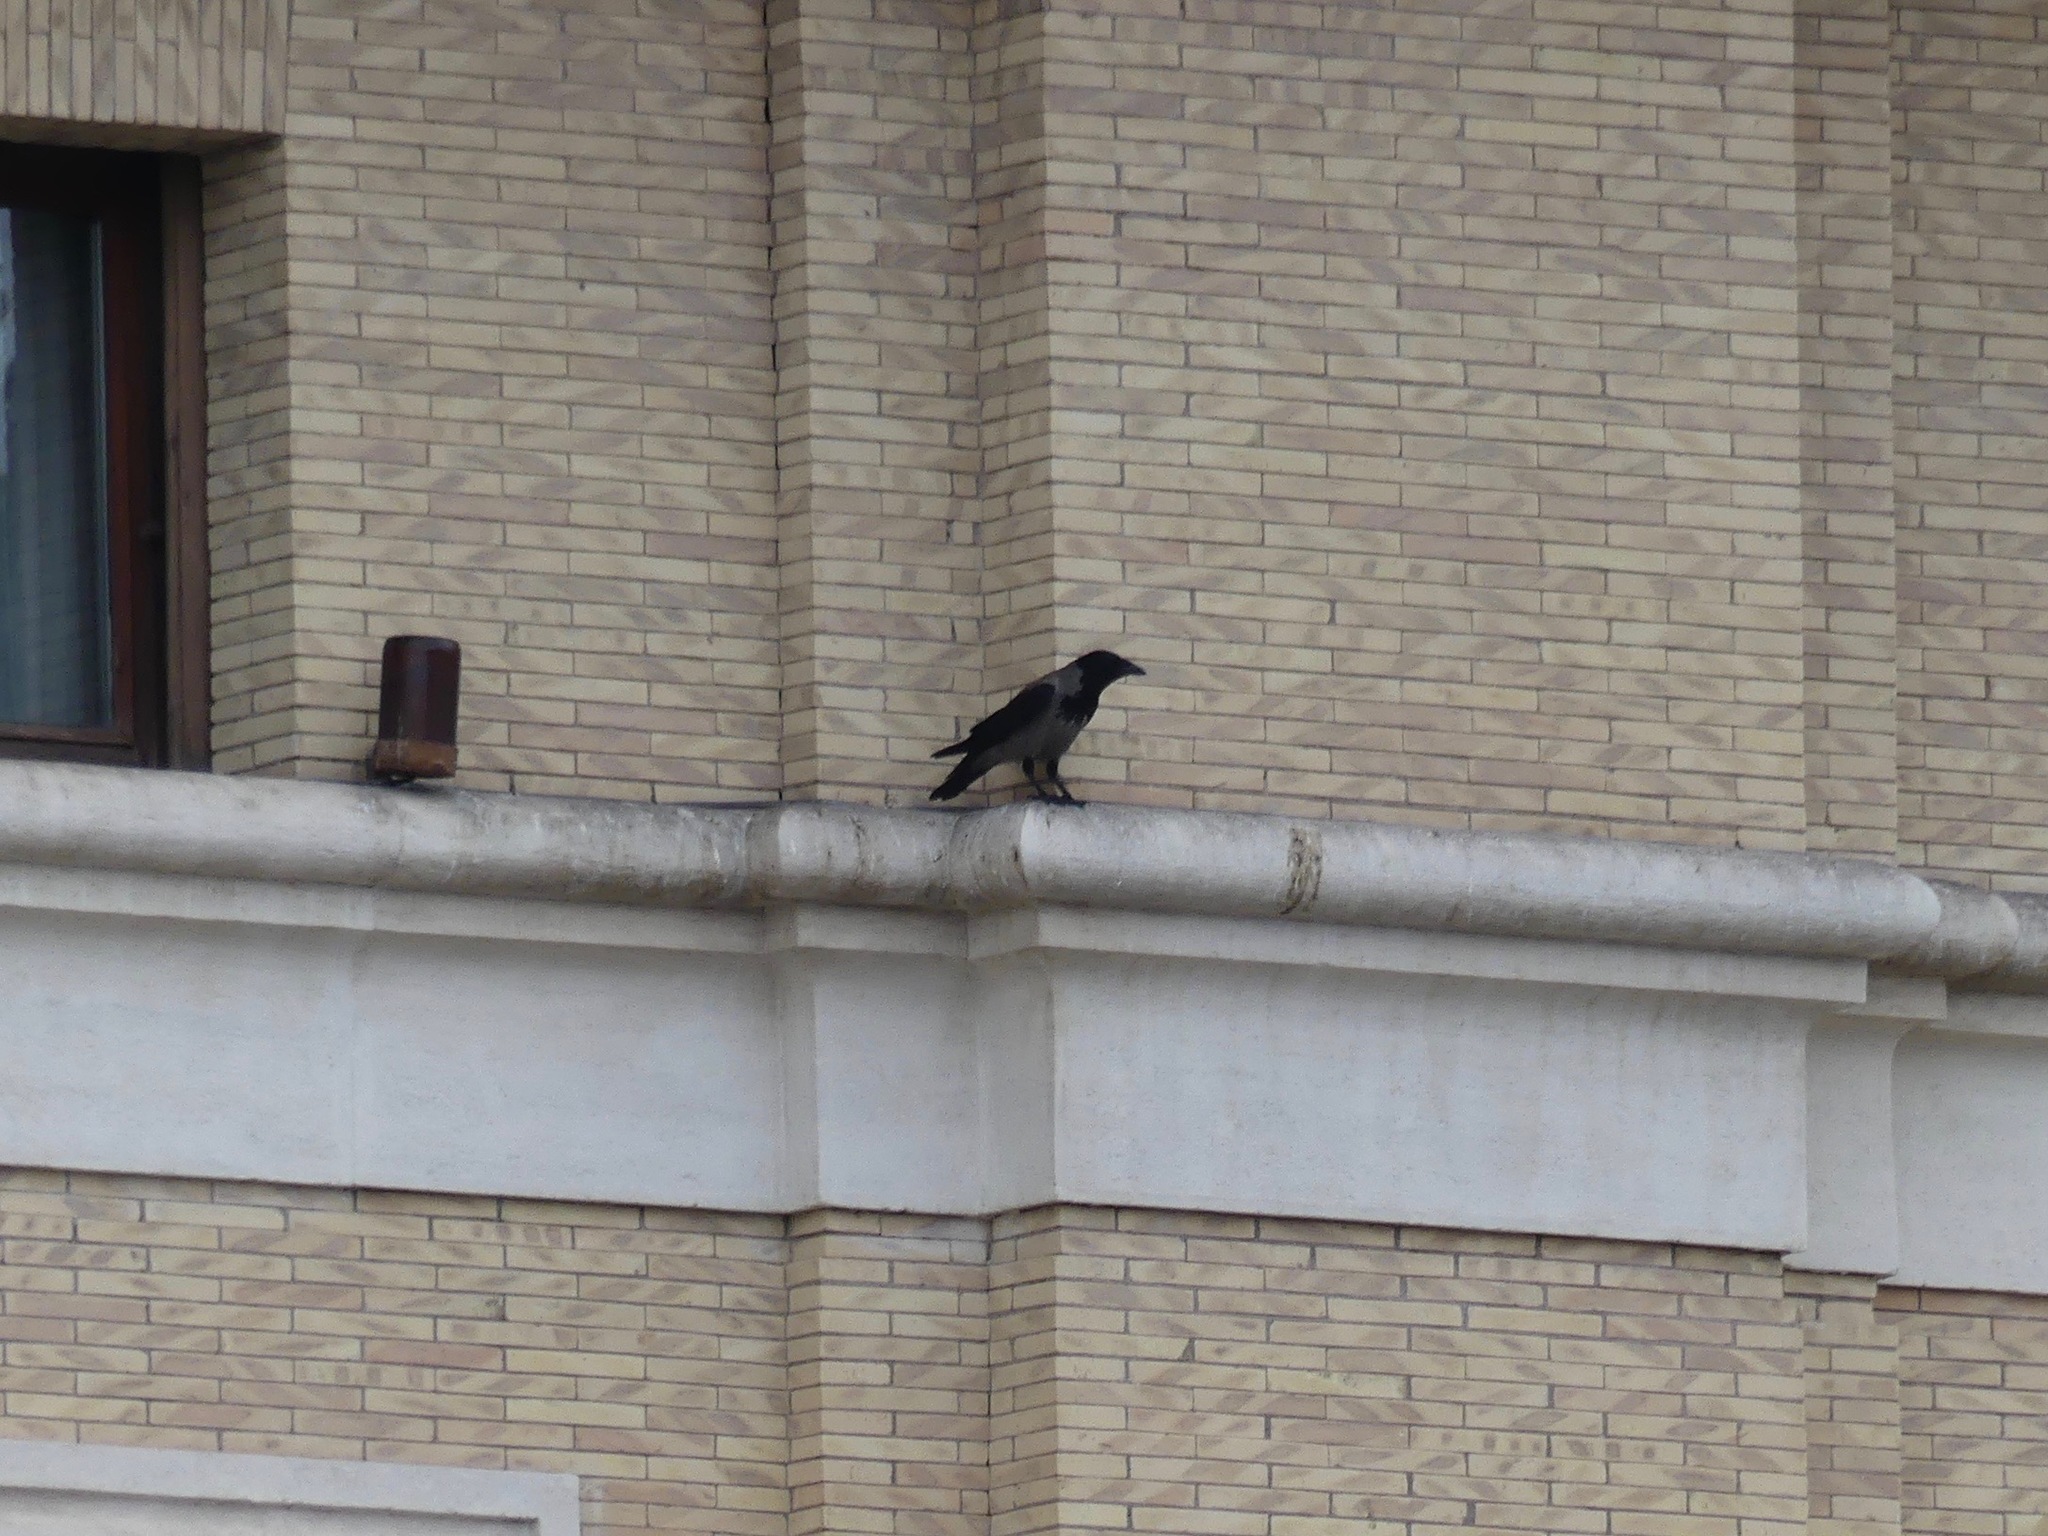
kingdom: Animalia
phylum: Chordata
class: Aves
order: Passeriformes
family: Corvidae
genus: Corvus
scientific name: Corvus cornix
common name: Hooded crow
